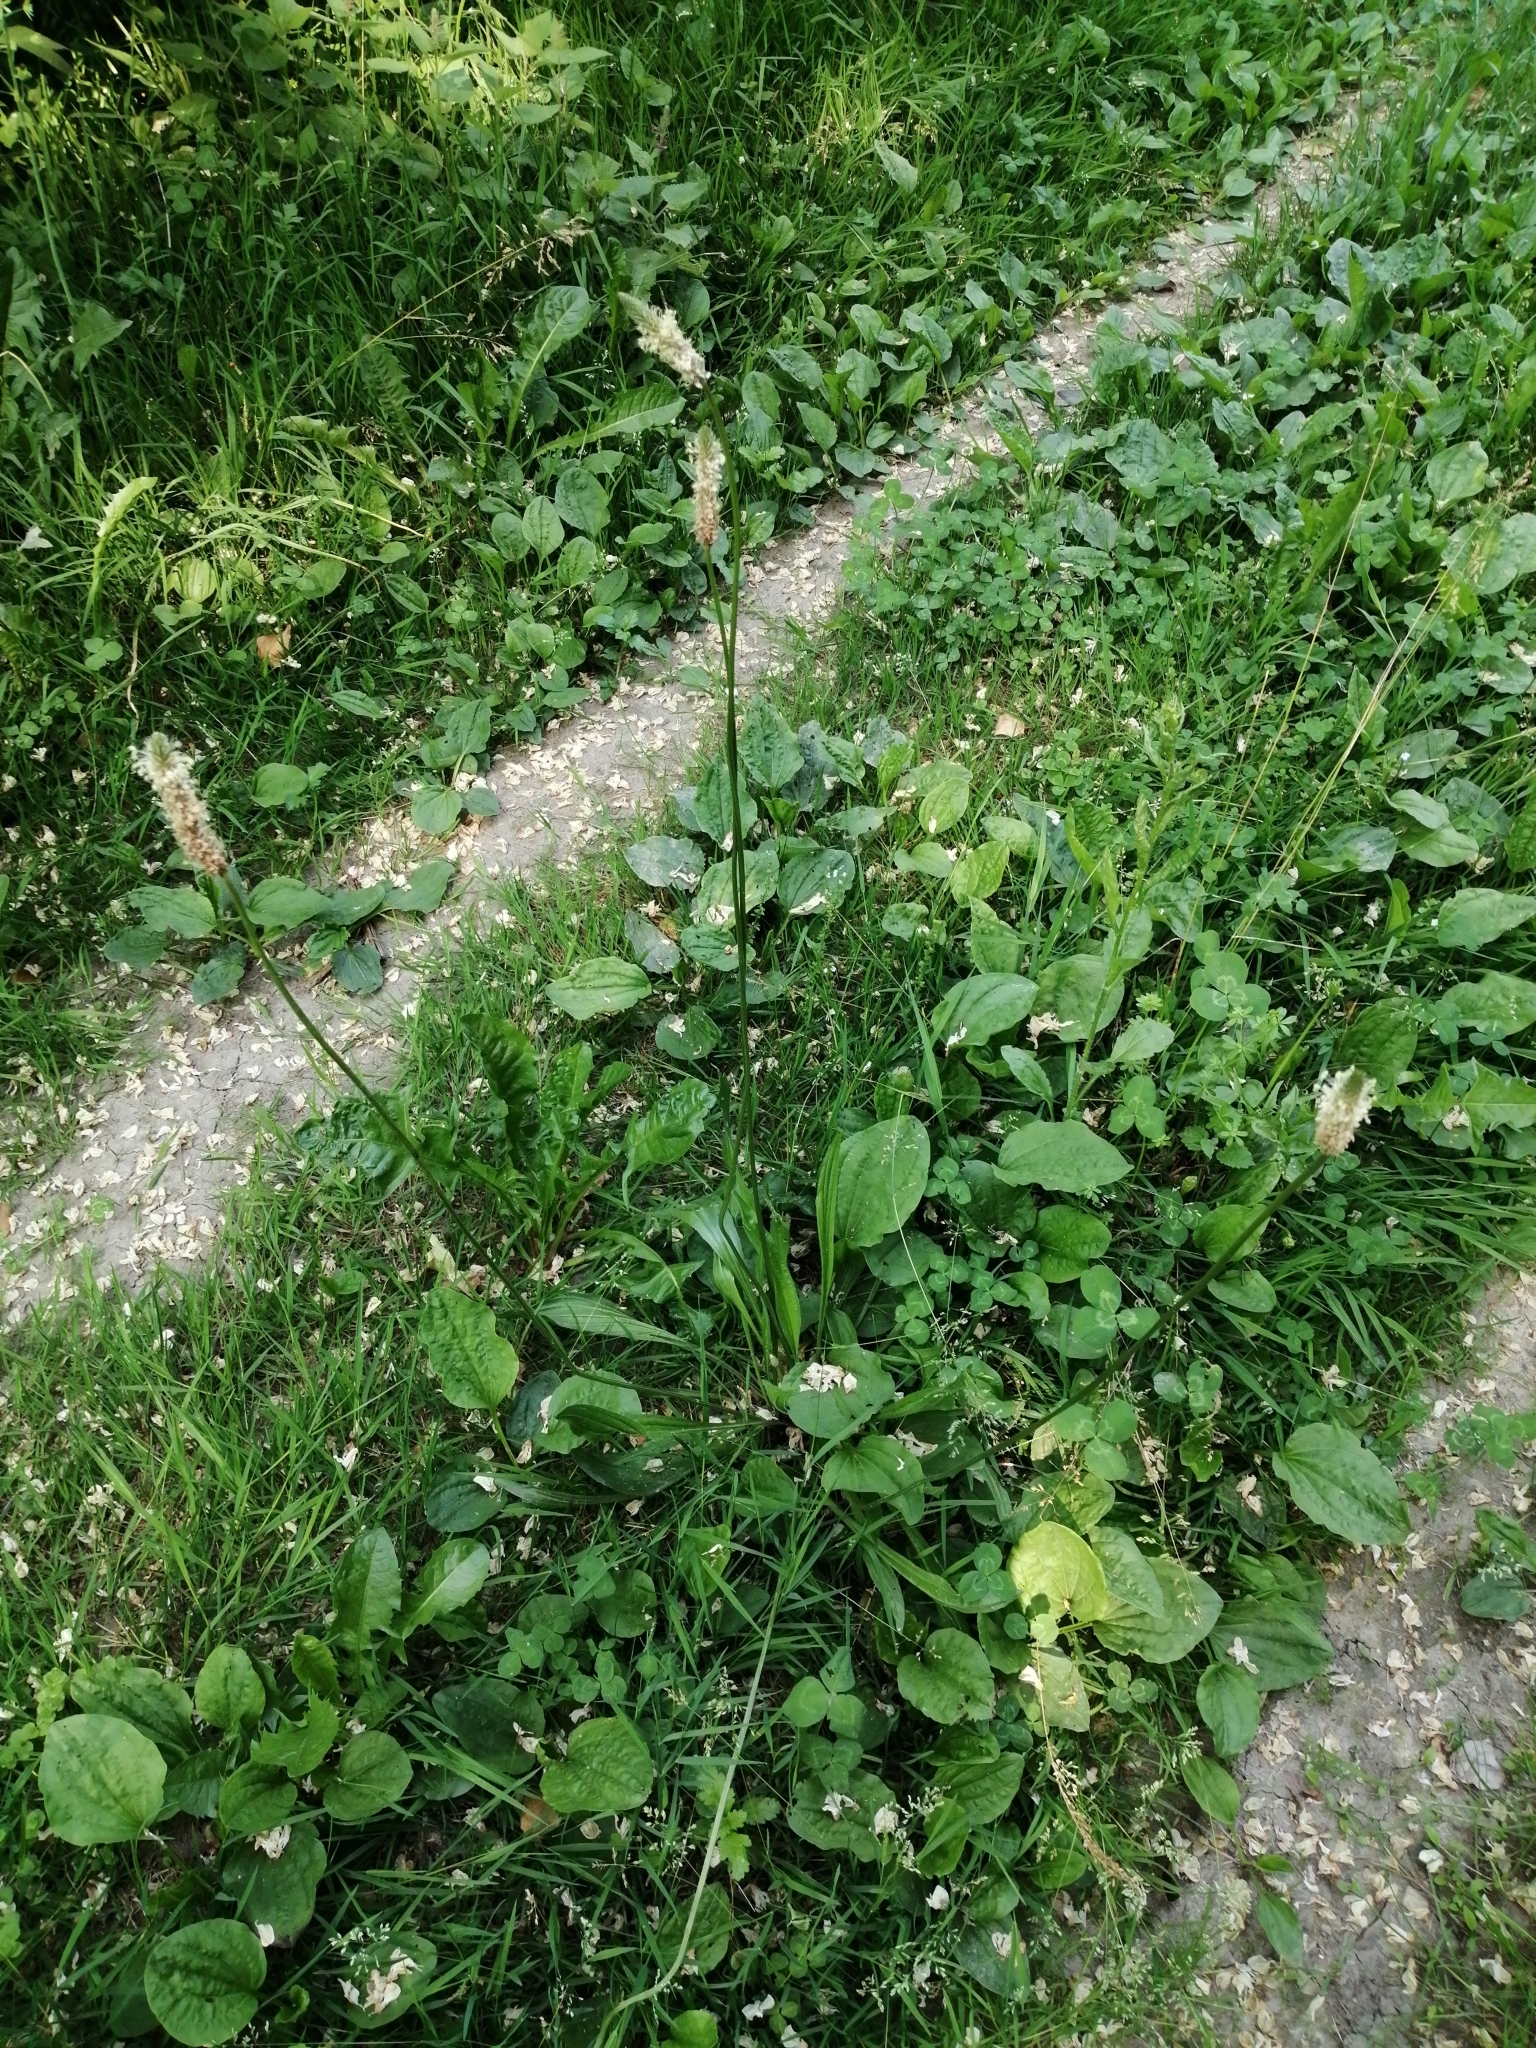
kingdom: Plantae
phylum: Tracheophyta
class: Magnoliopsida
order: Lamiales
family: Plantaginaceae
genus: Plantago
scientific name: Plantago lanceolata
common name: Ribwort plantain
